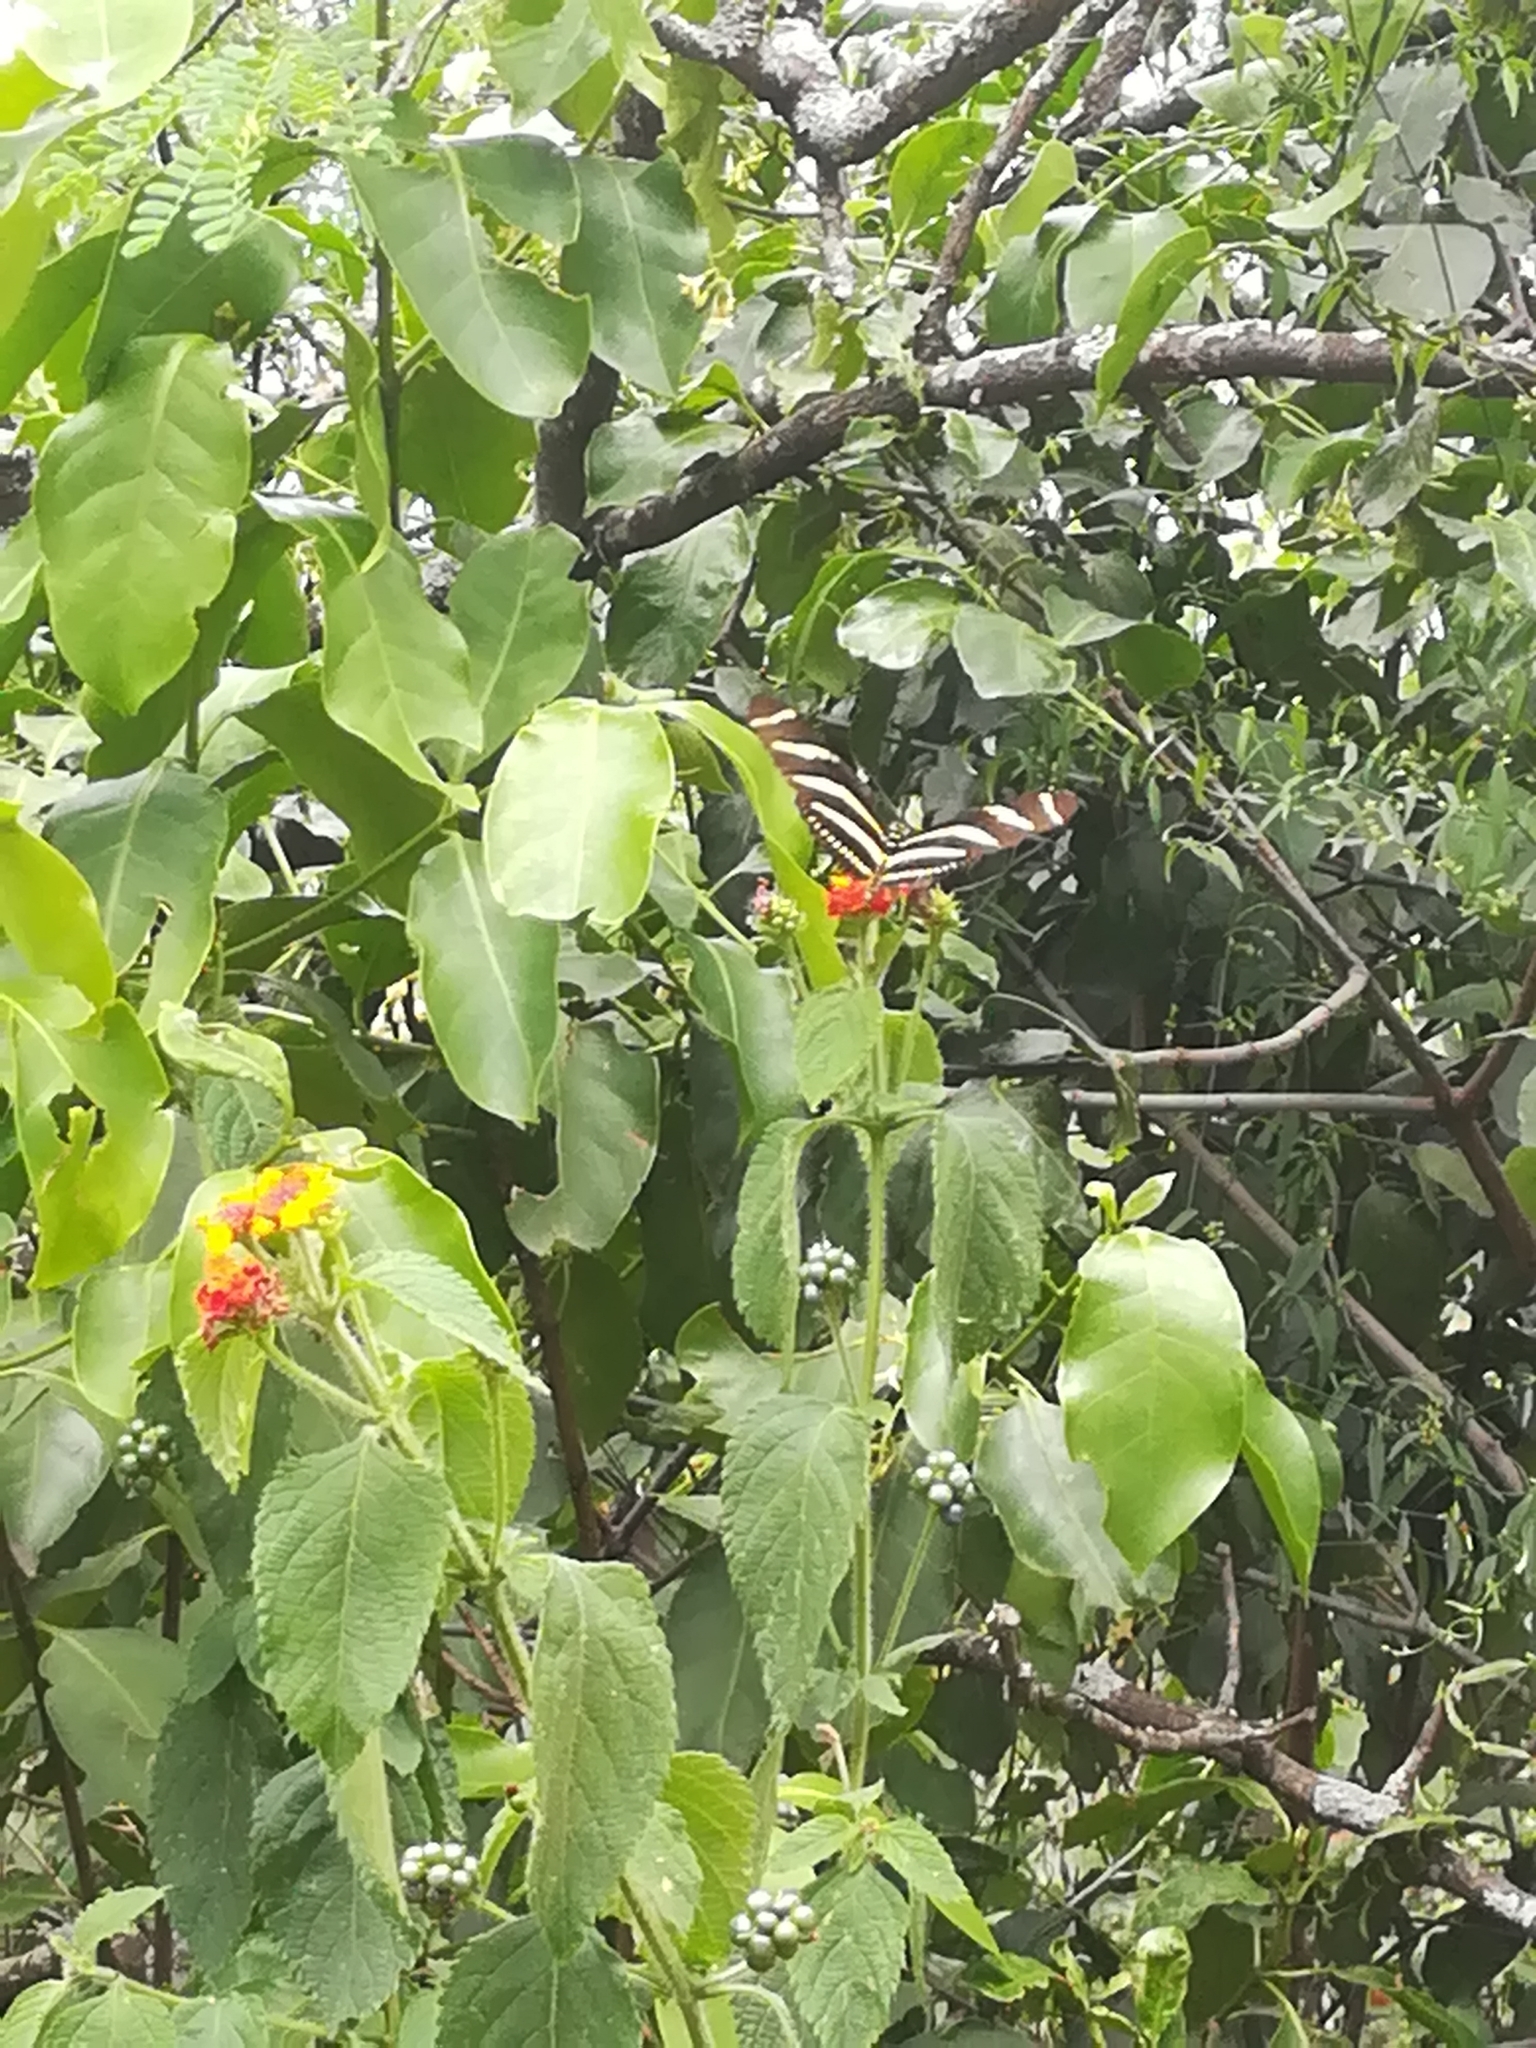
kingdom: Animalia
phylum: Arthropoda
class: Insecta
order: Lepidoptera
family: Nymphalidae
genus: Heliconius
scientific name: Heliconius charithonia
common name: Zebra long wing
